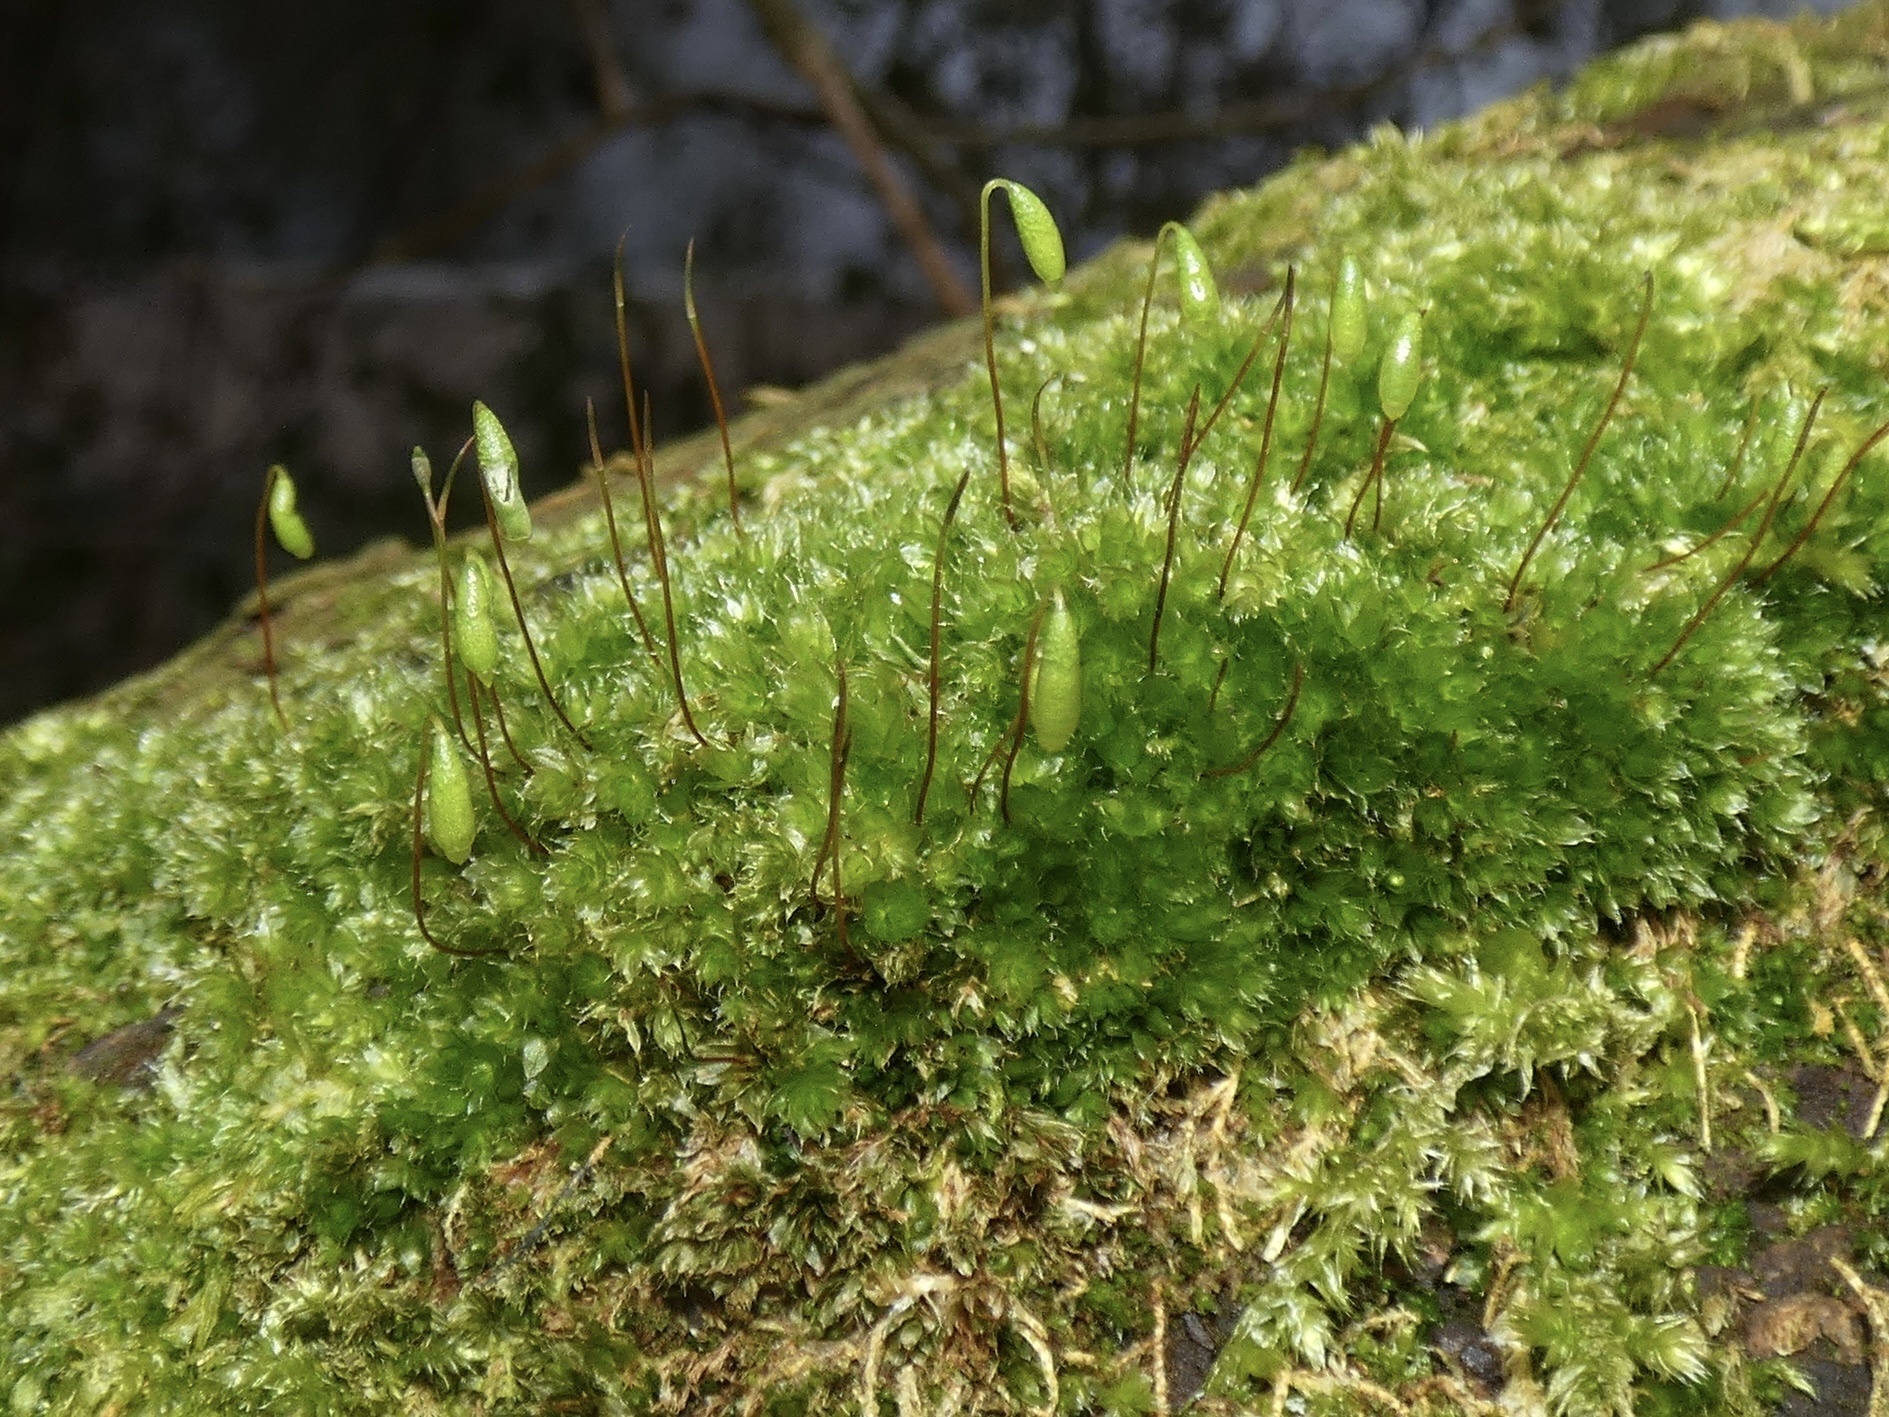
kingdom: Plantae
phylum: Bryophyta
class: Bryopsida
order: Bryales
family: Bryaceae
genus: Rosulabryum
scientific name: Rosulabryum capillare
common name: Capillary thread-moss
